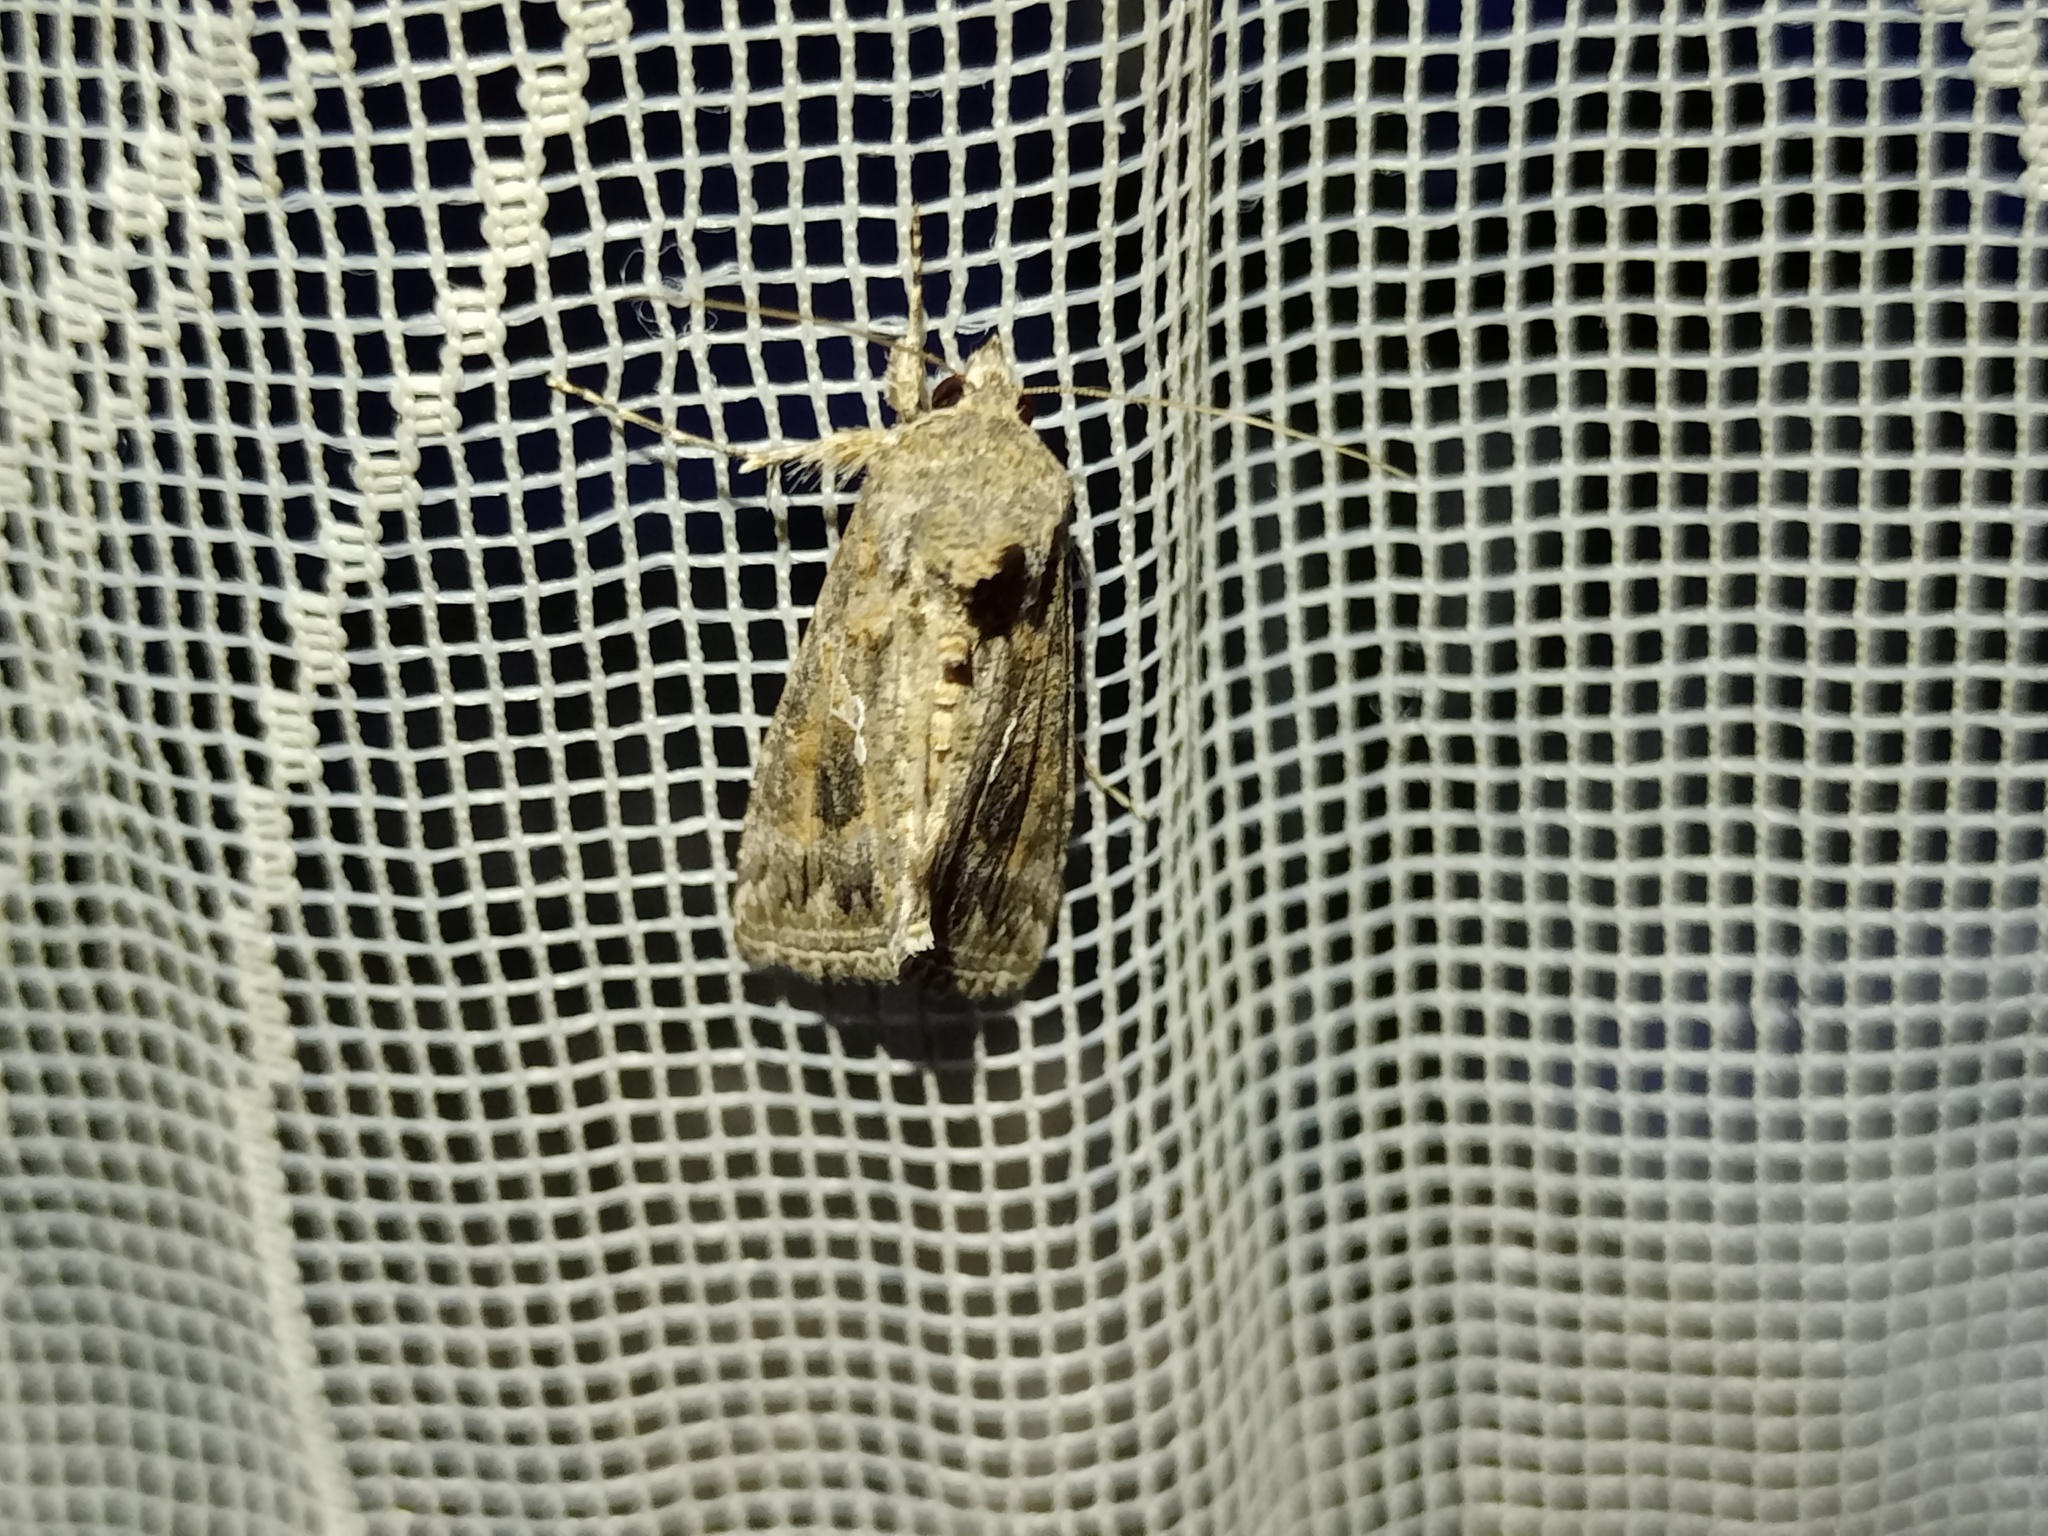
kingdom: Animalia
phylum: Arthropoda
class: Insecta
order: Lepidoptera
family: Noctuidae
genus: Trichoplusia
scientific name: Trichoplusia ni
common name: Ni moth
